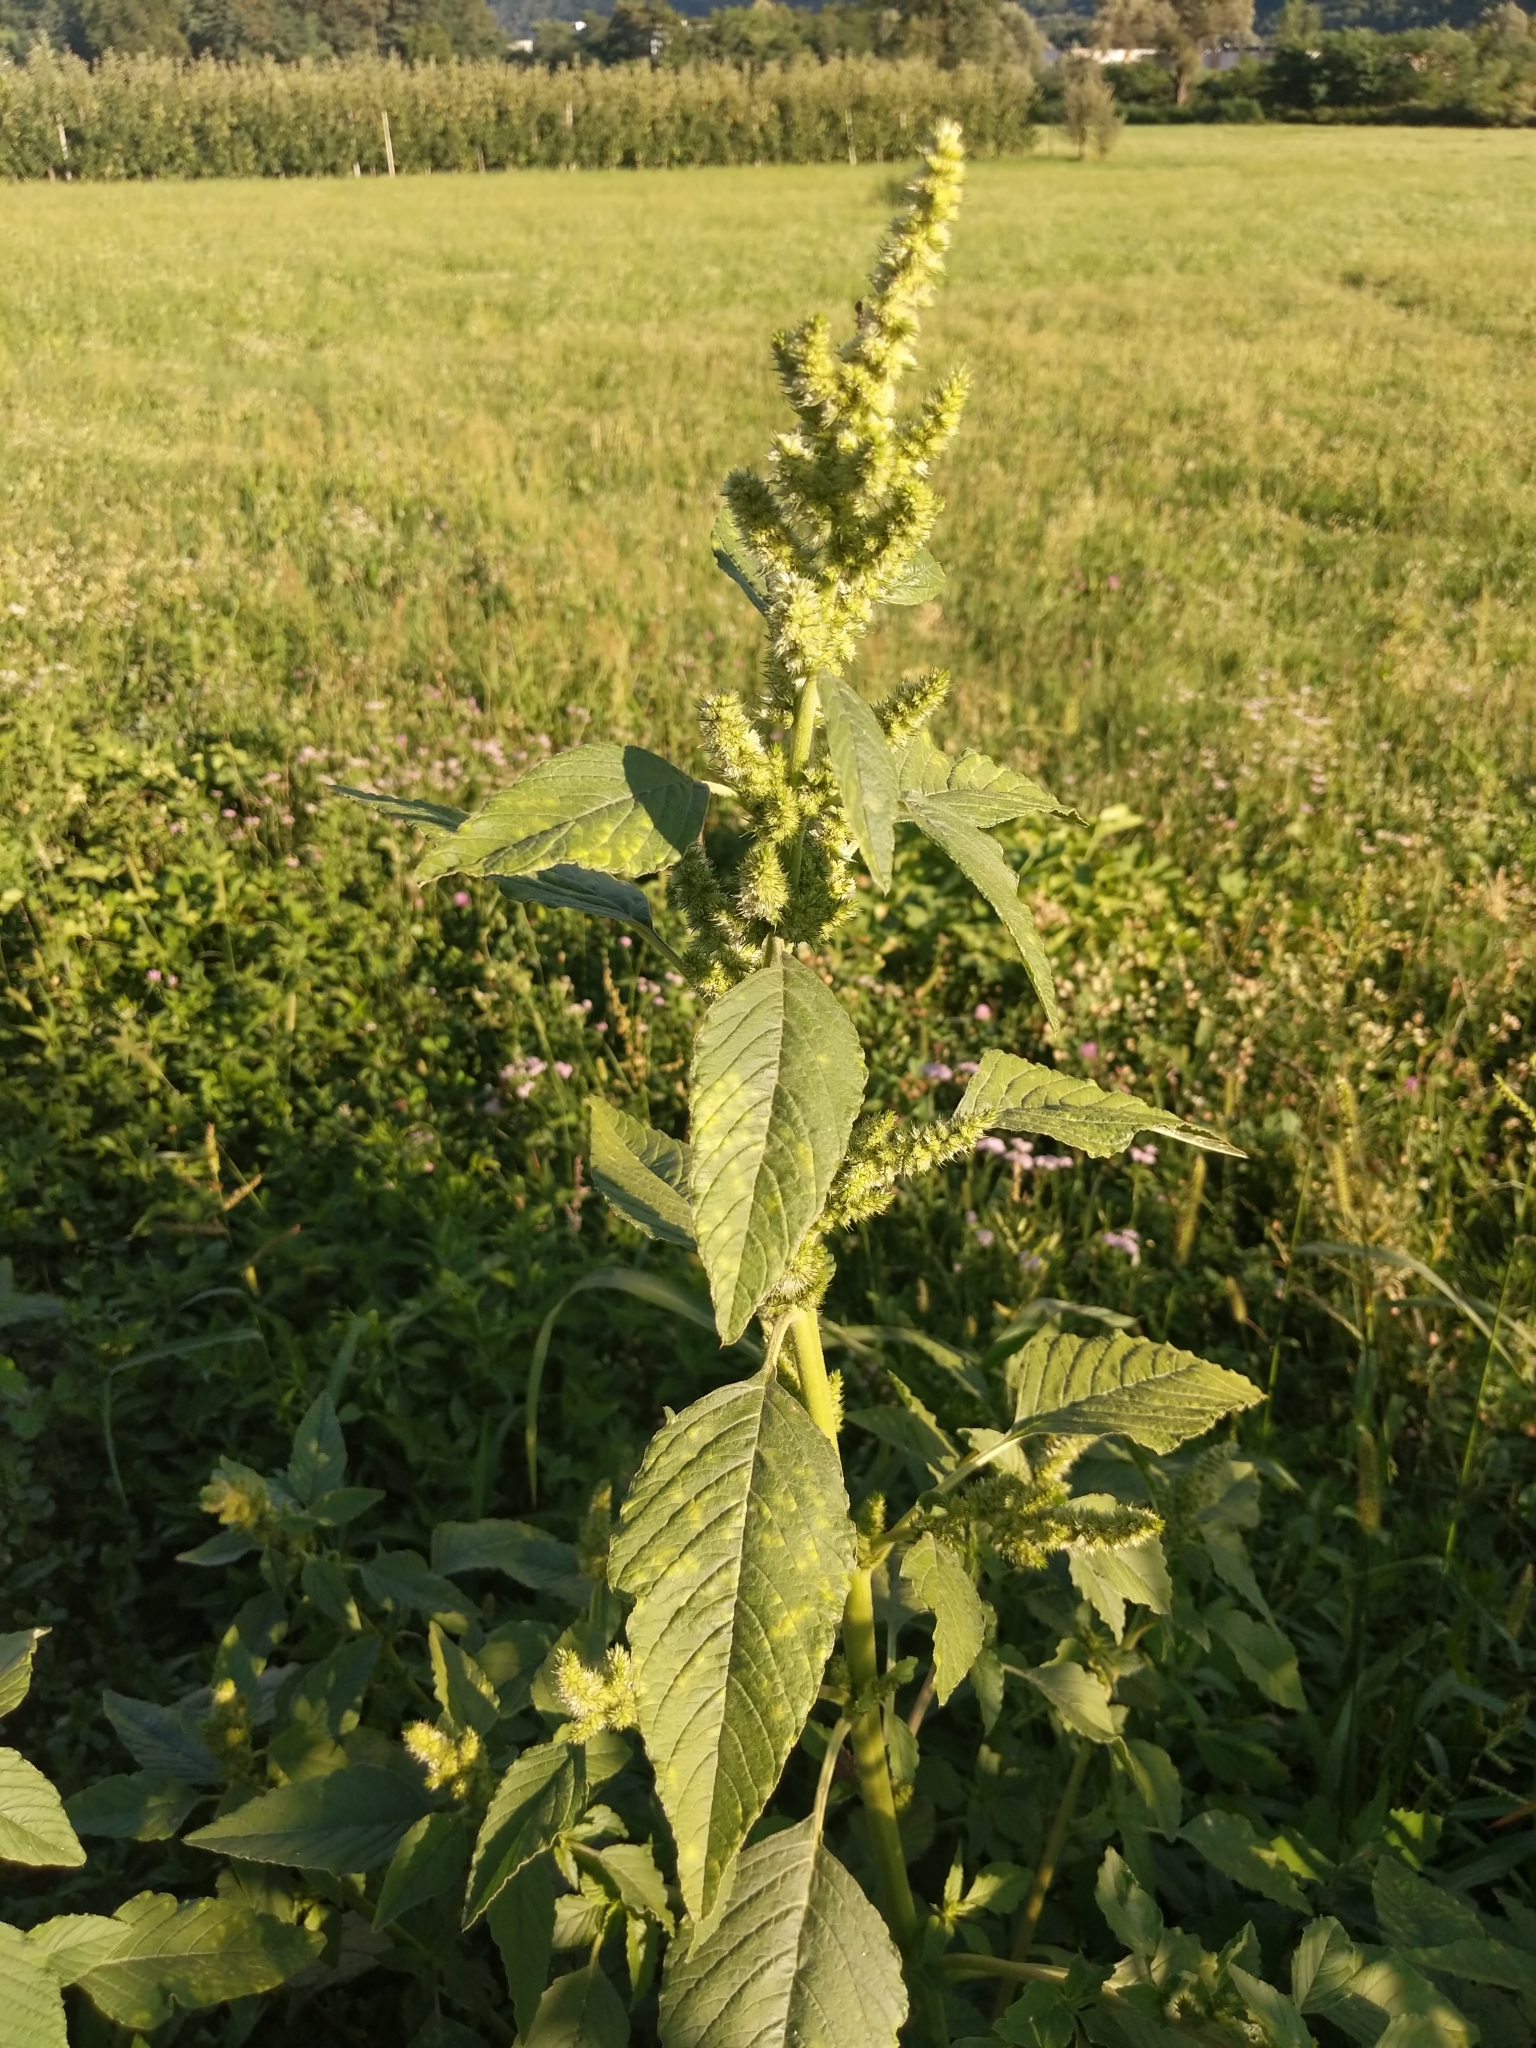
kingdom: Plantae
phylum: Tracheophyta
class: Magnoliopsida
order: Caryophyllales
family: Amaranthaceae
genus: Amaranthus
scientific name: Amaranthus retroflexus
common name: Redroot amaranth
